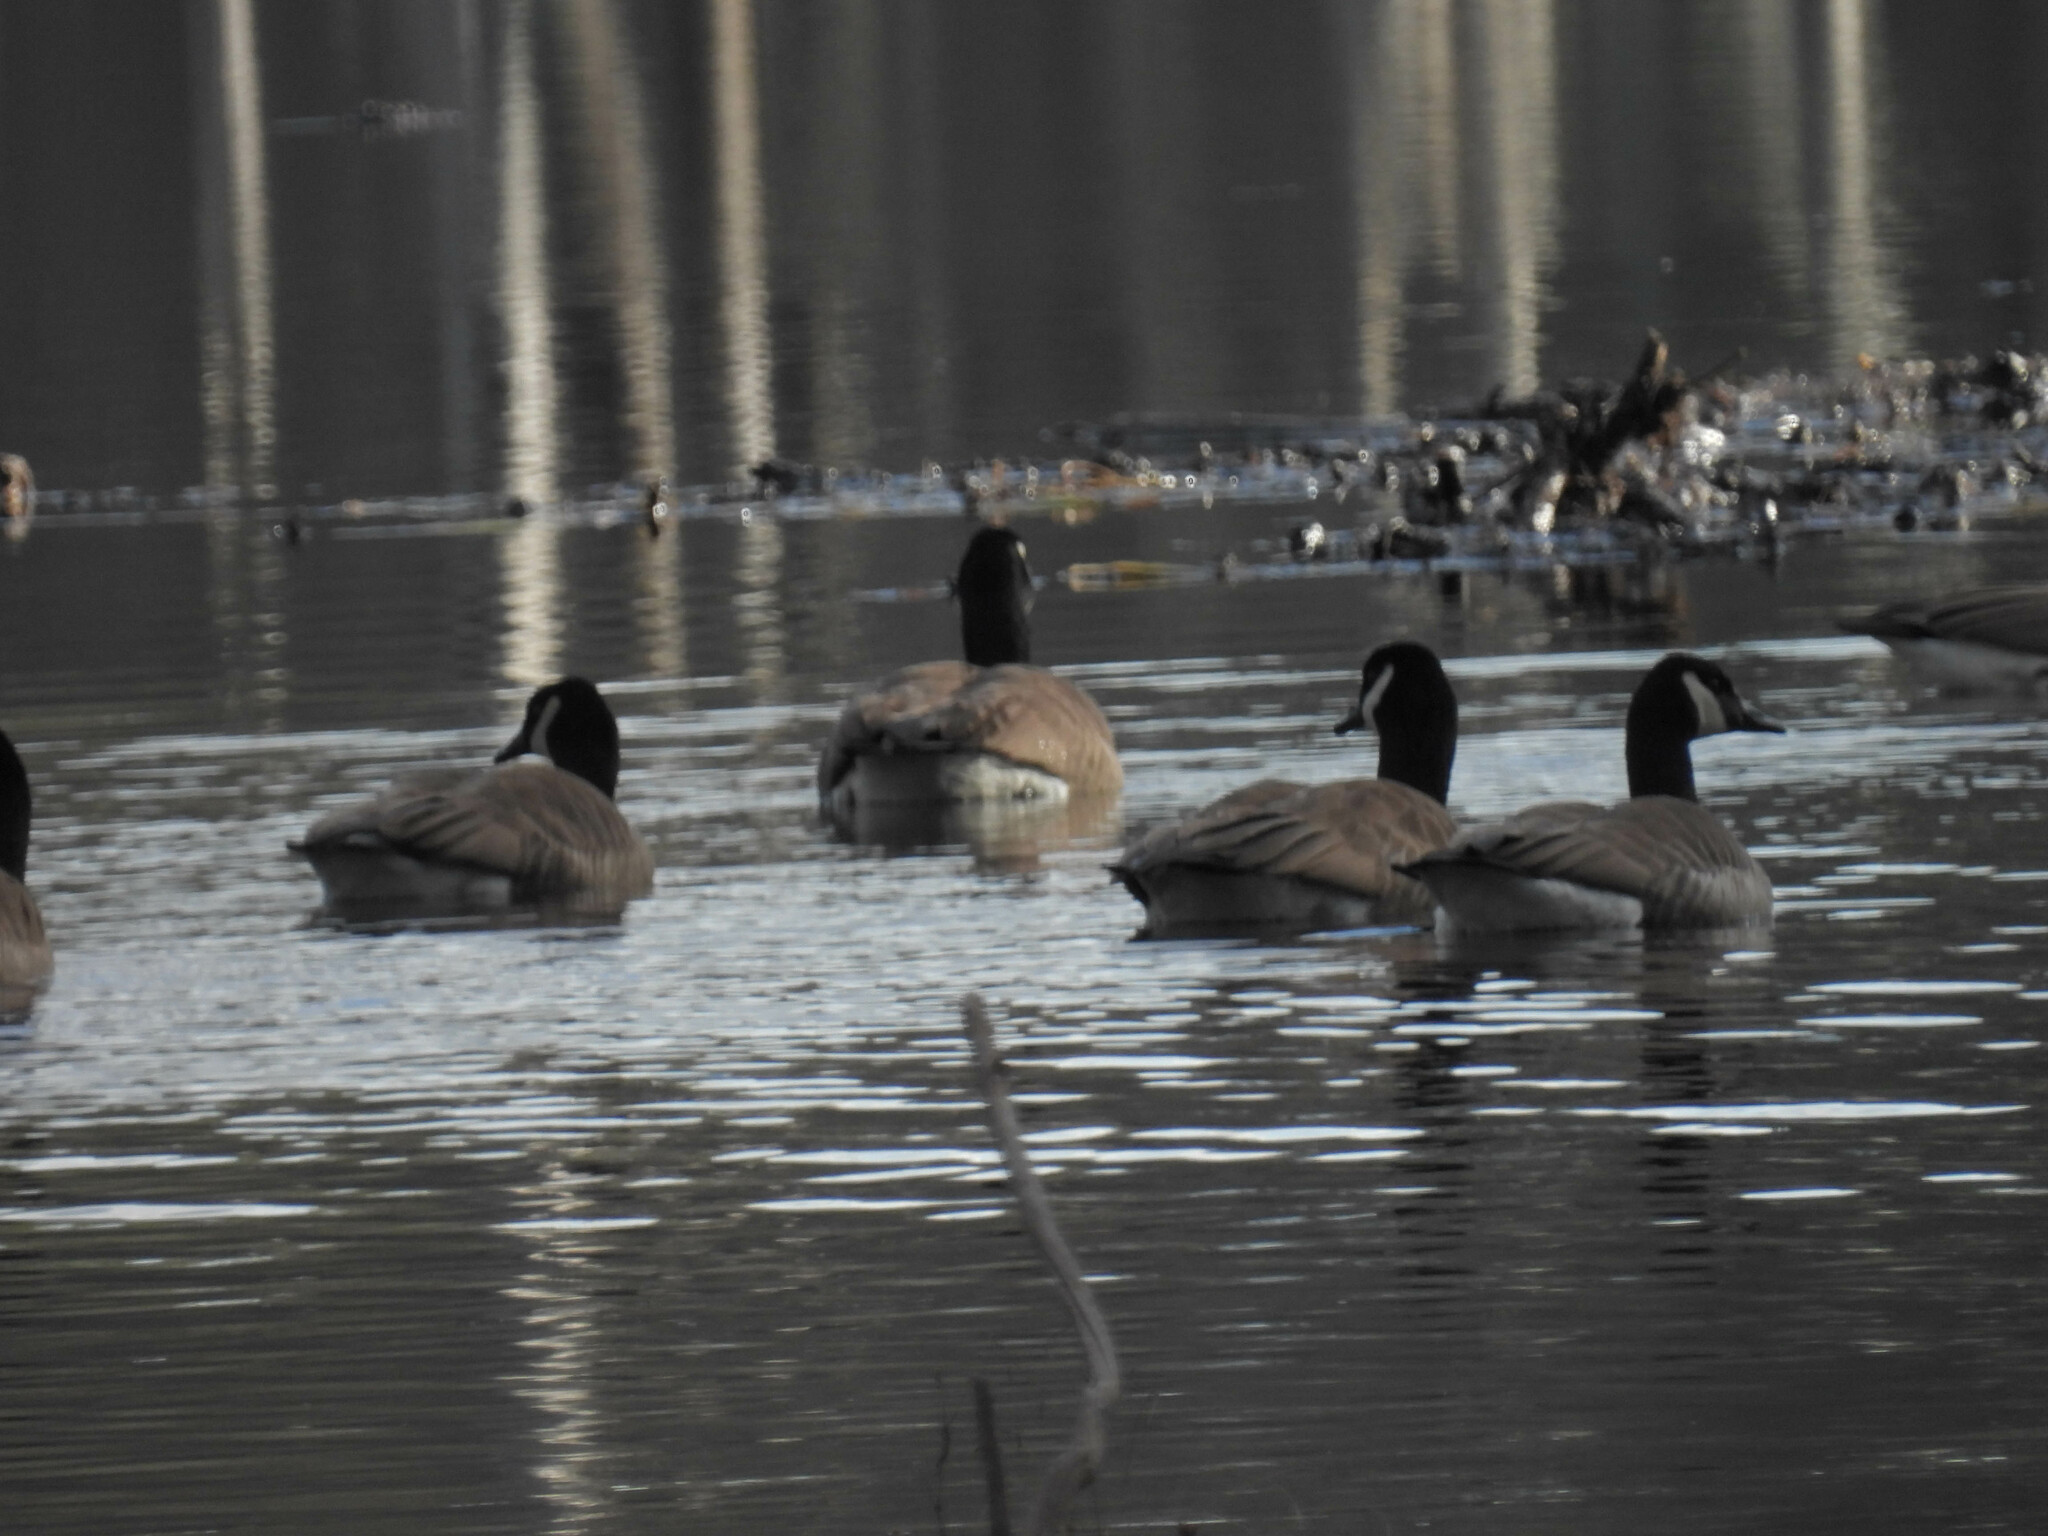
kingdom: Animalia
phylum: Chordata
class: Aves
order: Anseriformes
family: Anatidae
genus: Branta
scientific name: Branta canadensis
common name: Canada goose
